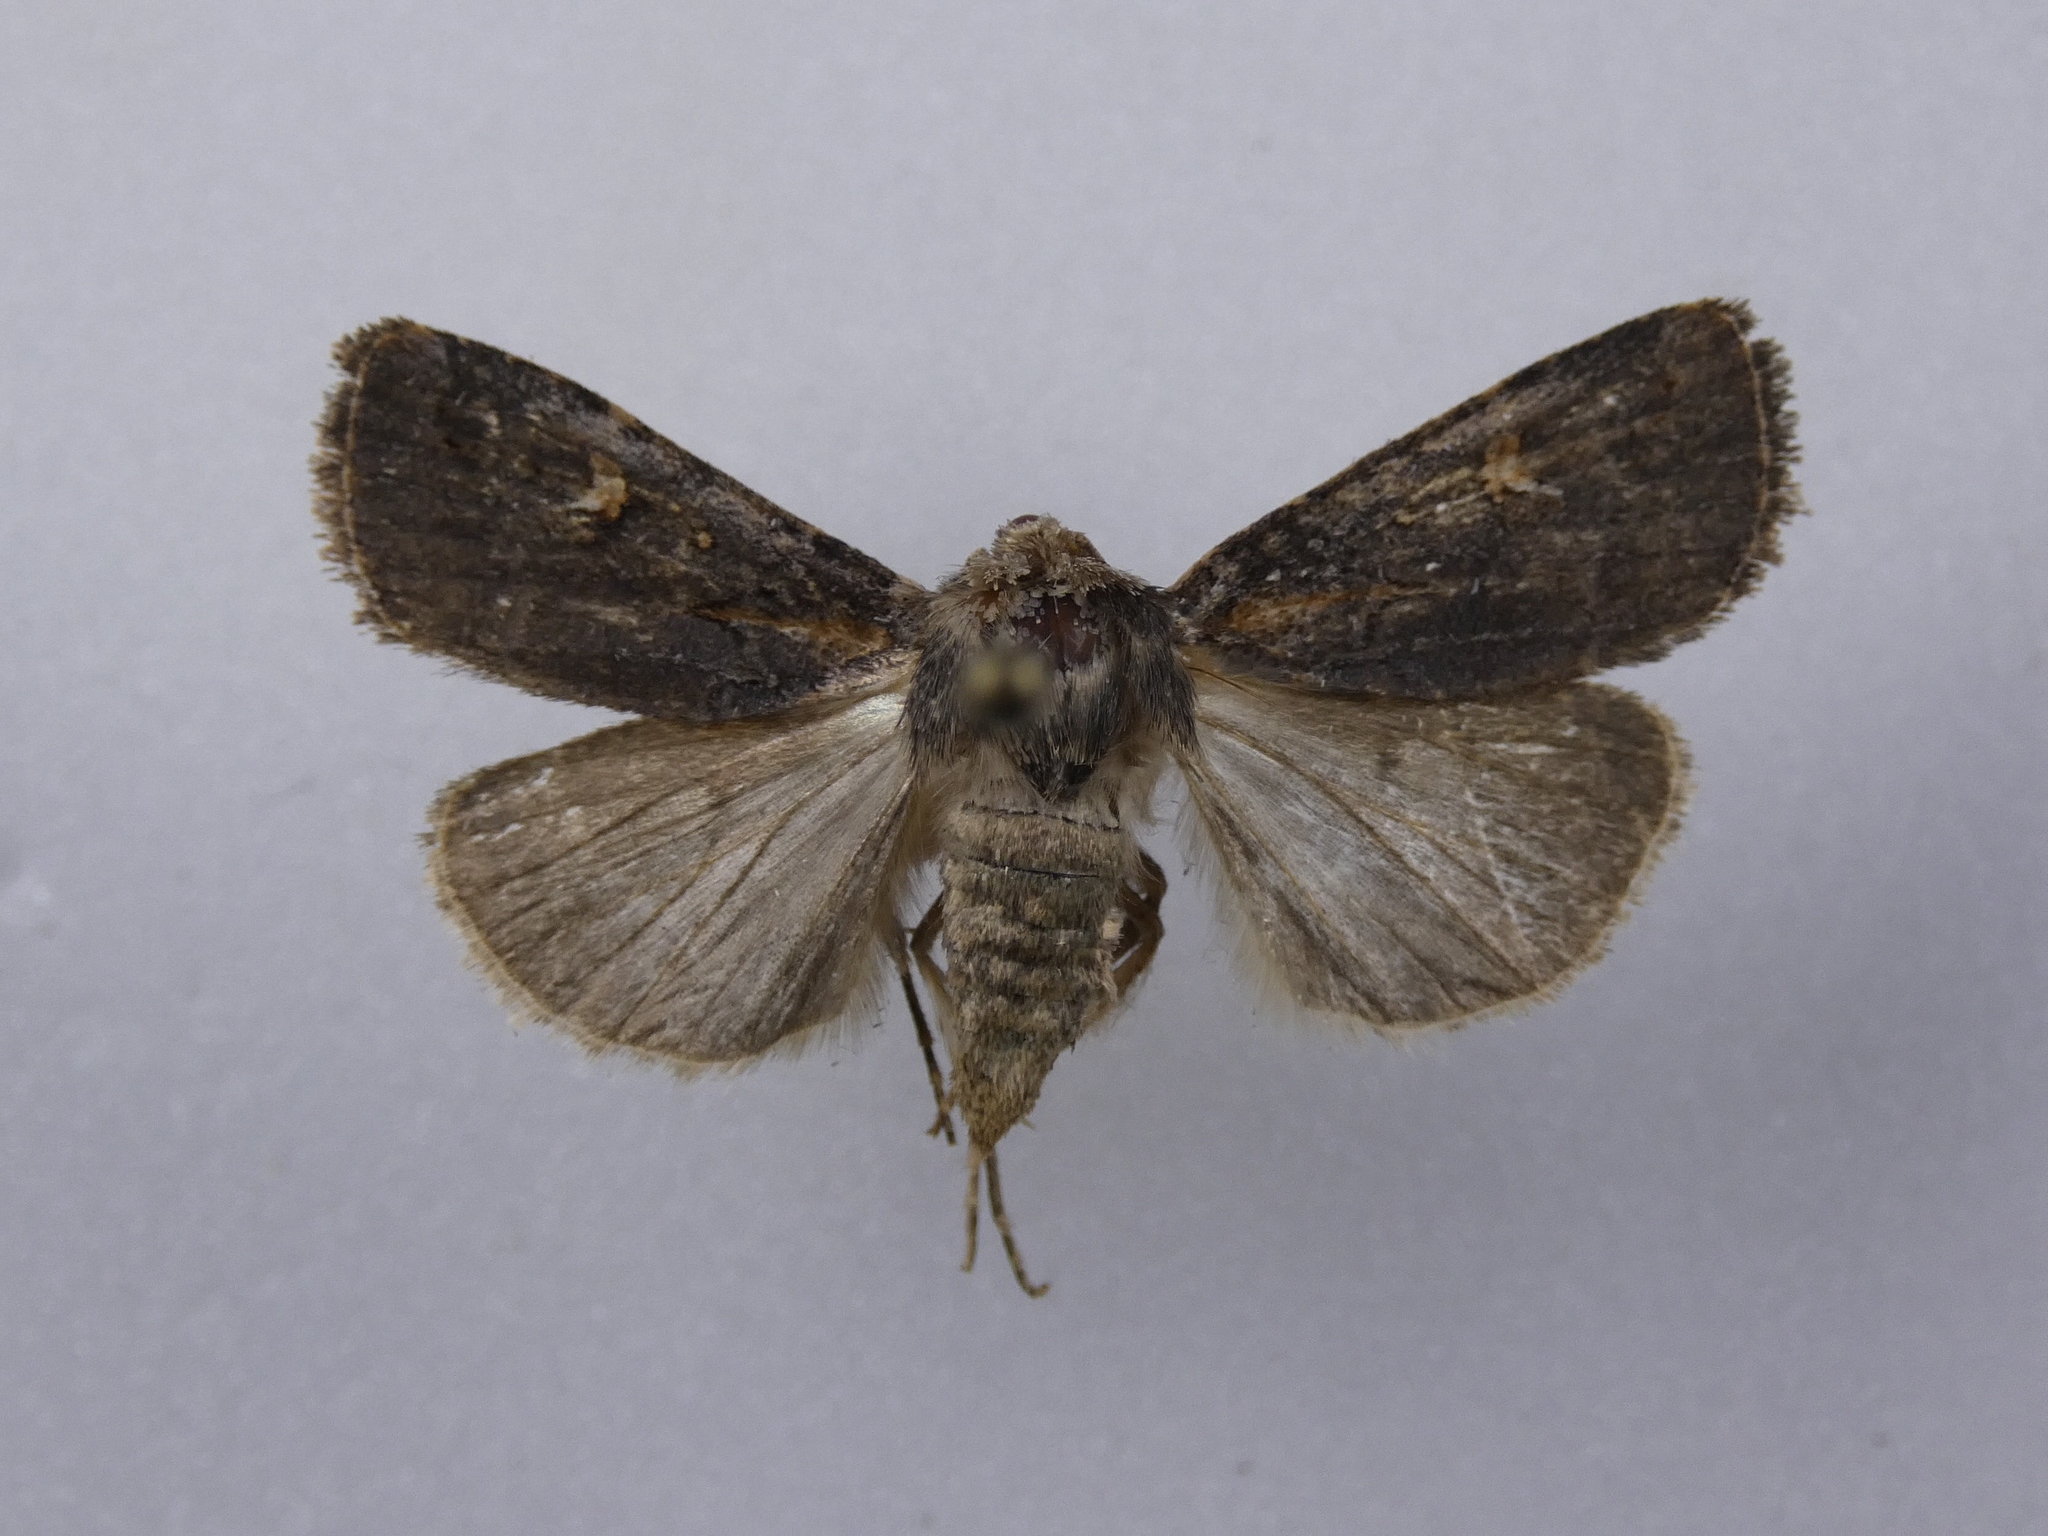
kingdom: Animalia
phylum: Arthropoda
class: Insecta
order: Lepidoptera
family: Noctuidae
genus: Proteuxoa
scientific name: Proteuxoa tetronycha
